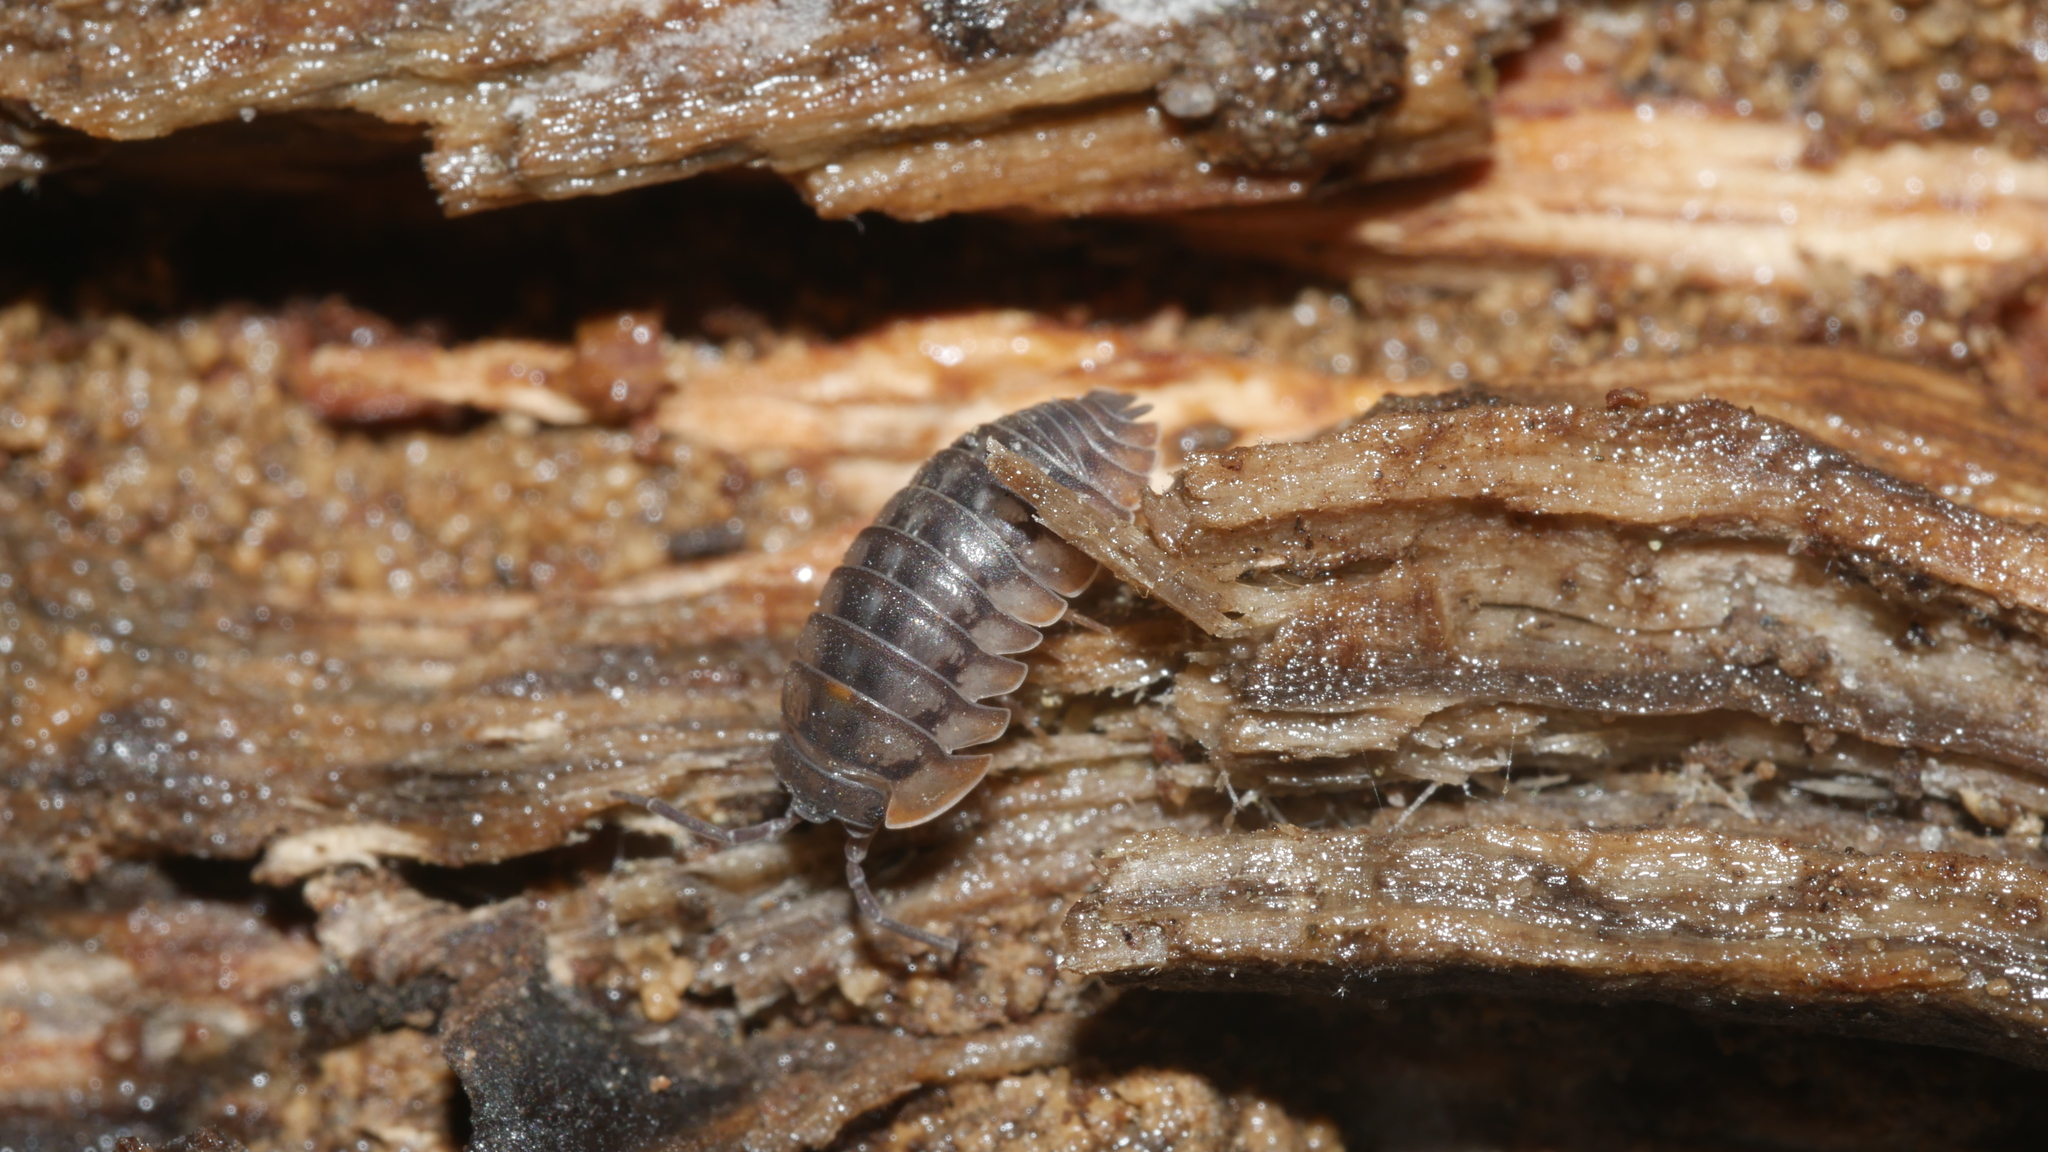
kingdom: Animalia
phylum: Arthropoda
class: Malacostraca
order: Isopoda
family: Armadillidiidae
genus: Armadillidium
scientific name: Armadillidium nasatum
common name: Isopod
